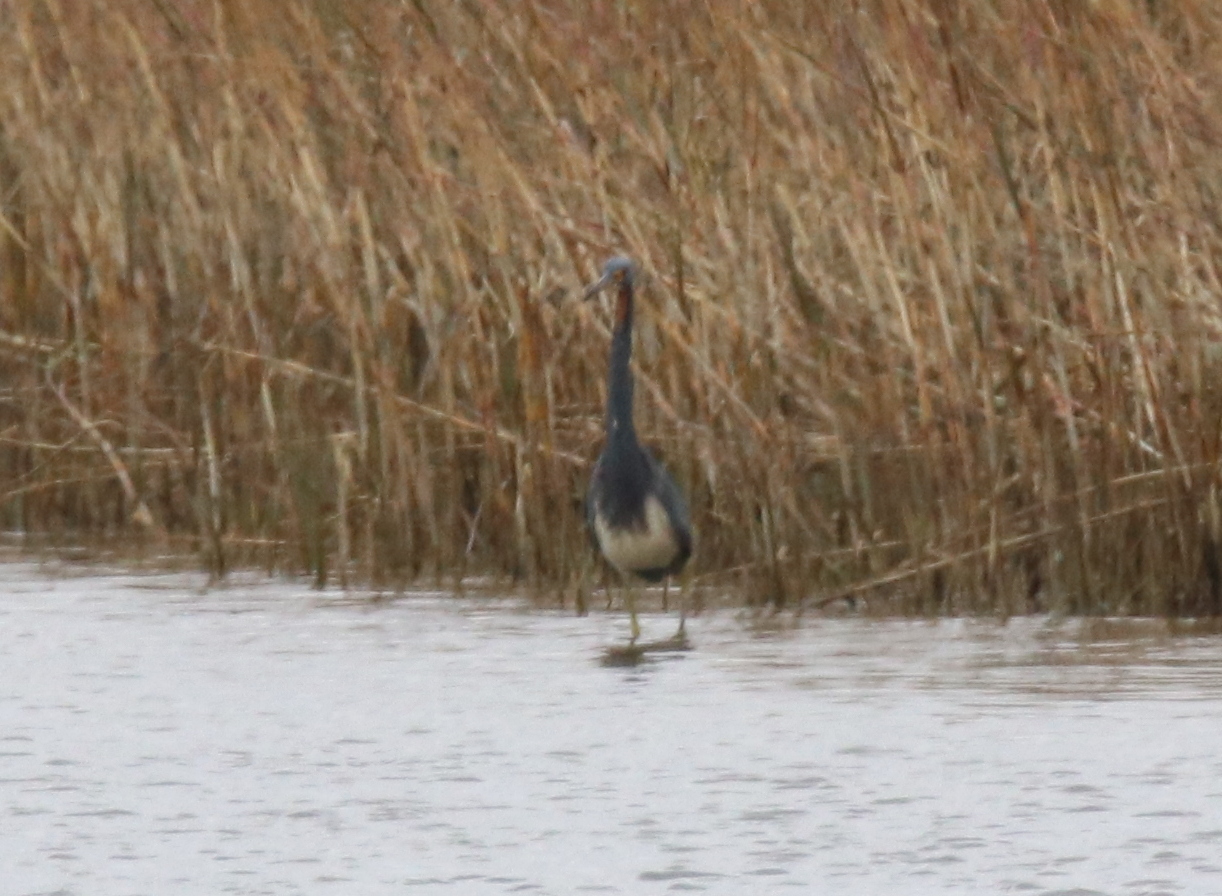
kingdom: Animalia
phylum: Chordata
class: Aves
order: Pelecaniformes
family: Ardeidae
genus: Egretta
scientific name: Egretta tricolor
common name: Tricolored heron
